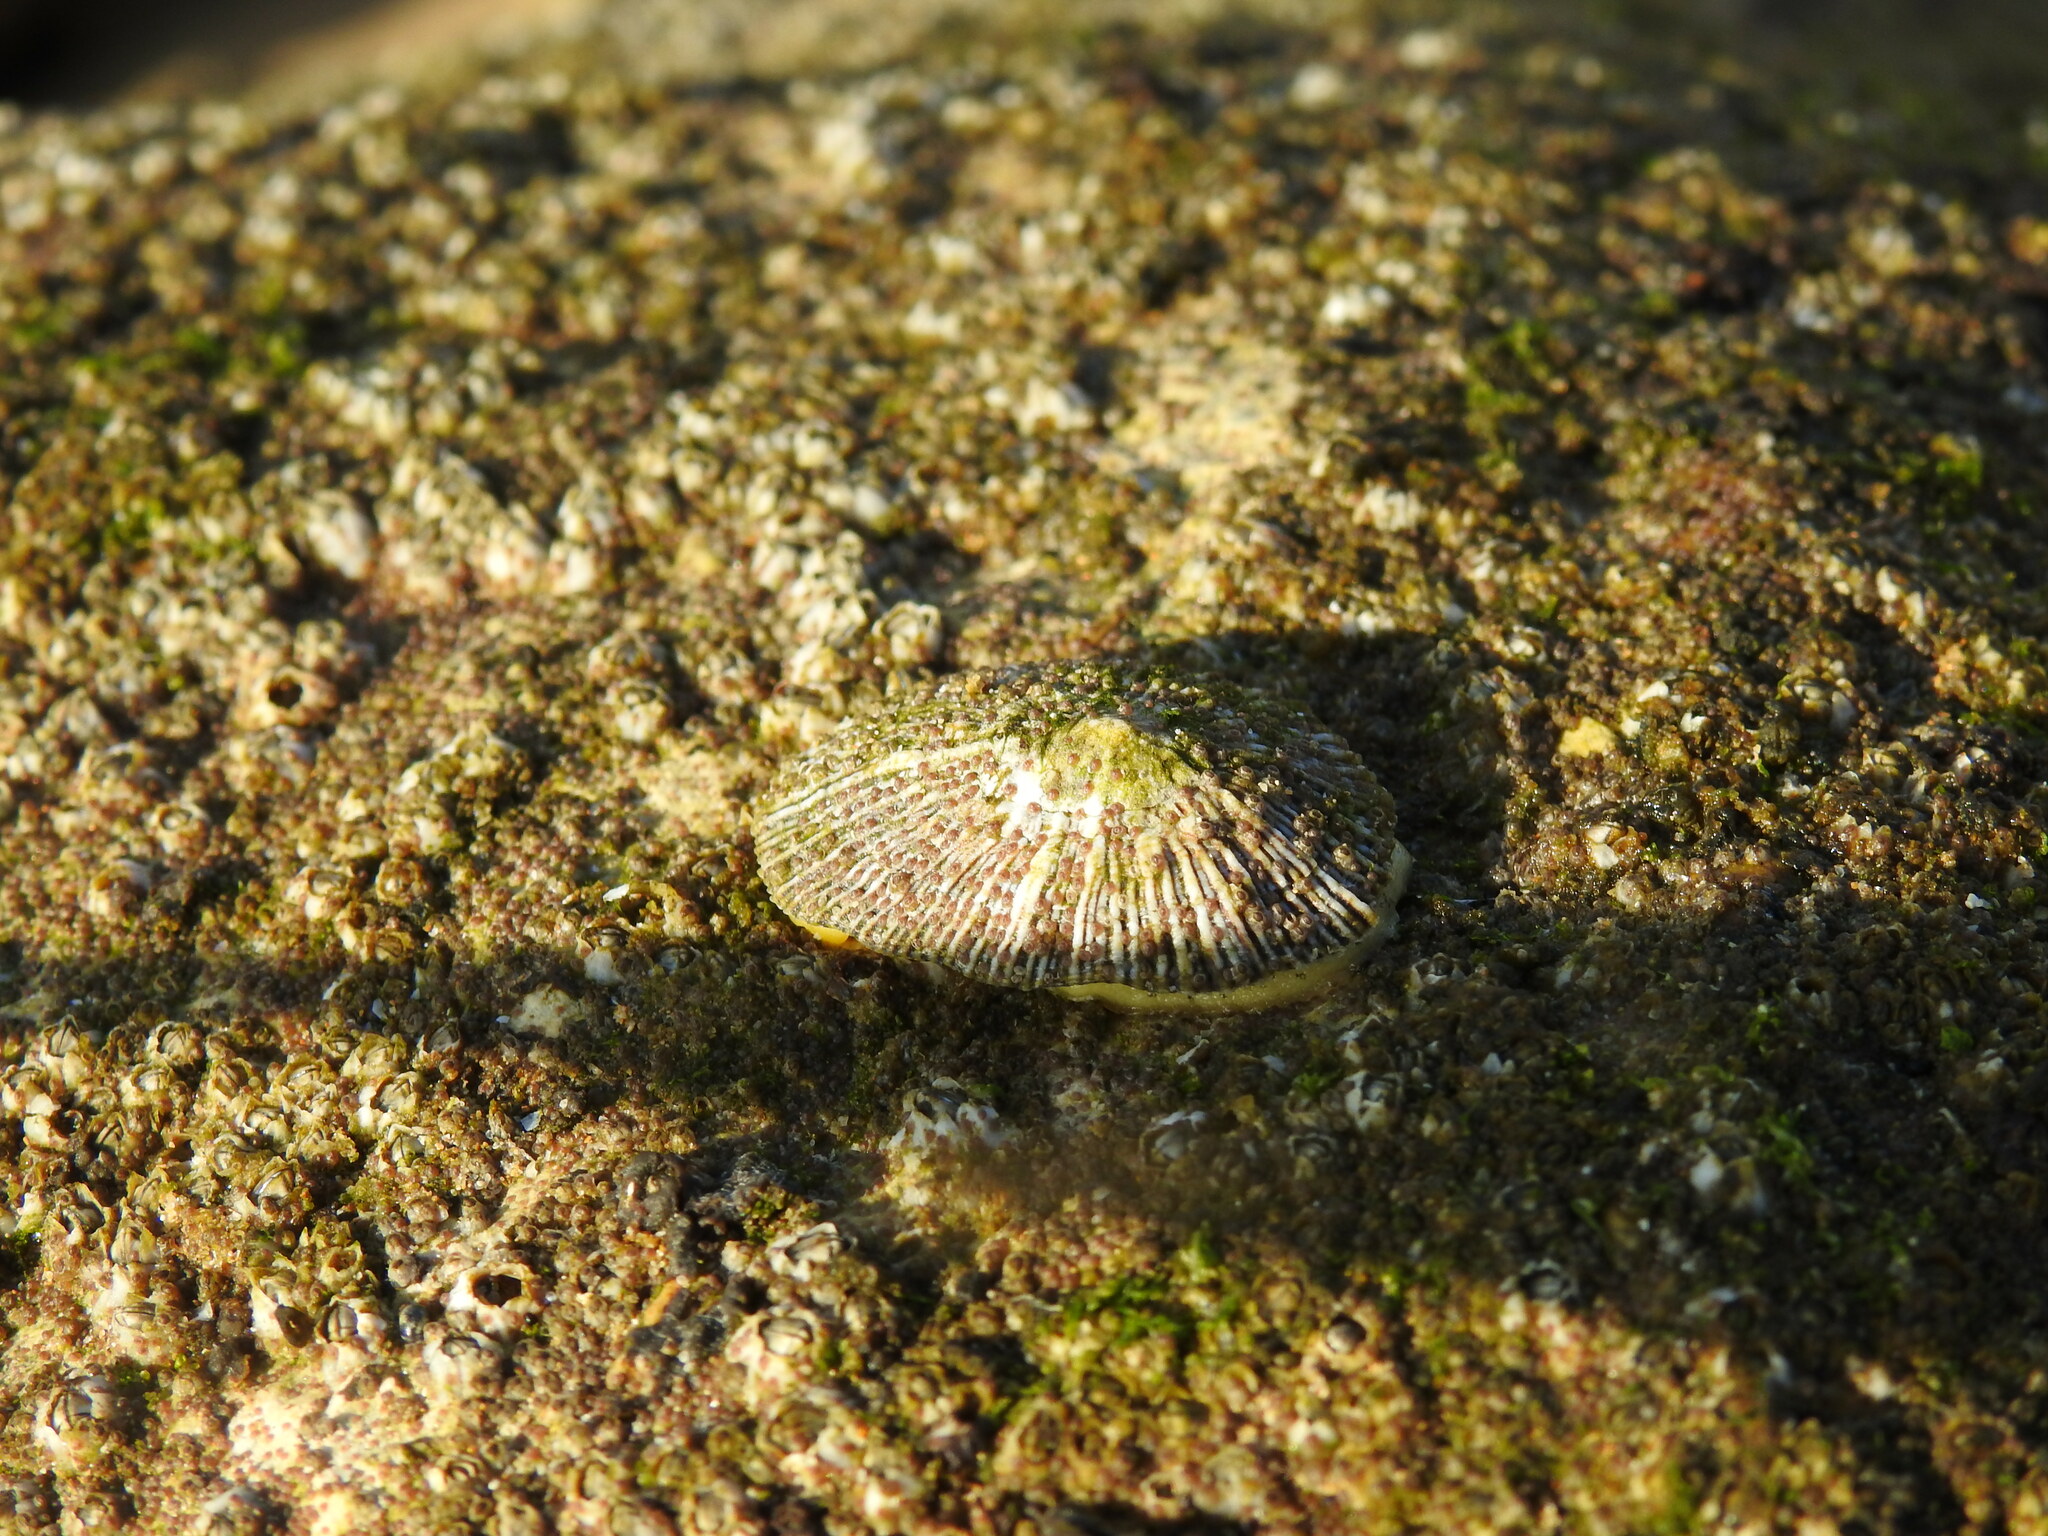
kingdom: Animalia
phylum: Mollusca
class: Gastropoda
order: Siphonariida
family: Siphonariidae
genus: Siphonaria
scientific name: Siphonaria pectinata
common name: Striped false limpet
